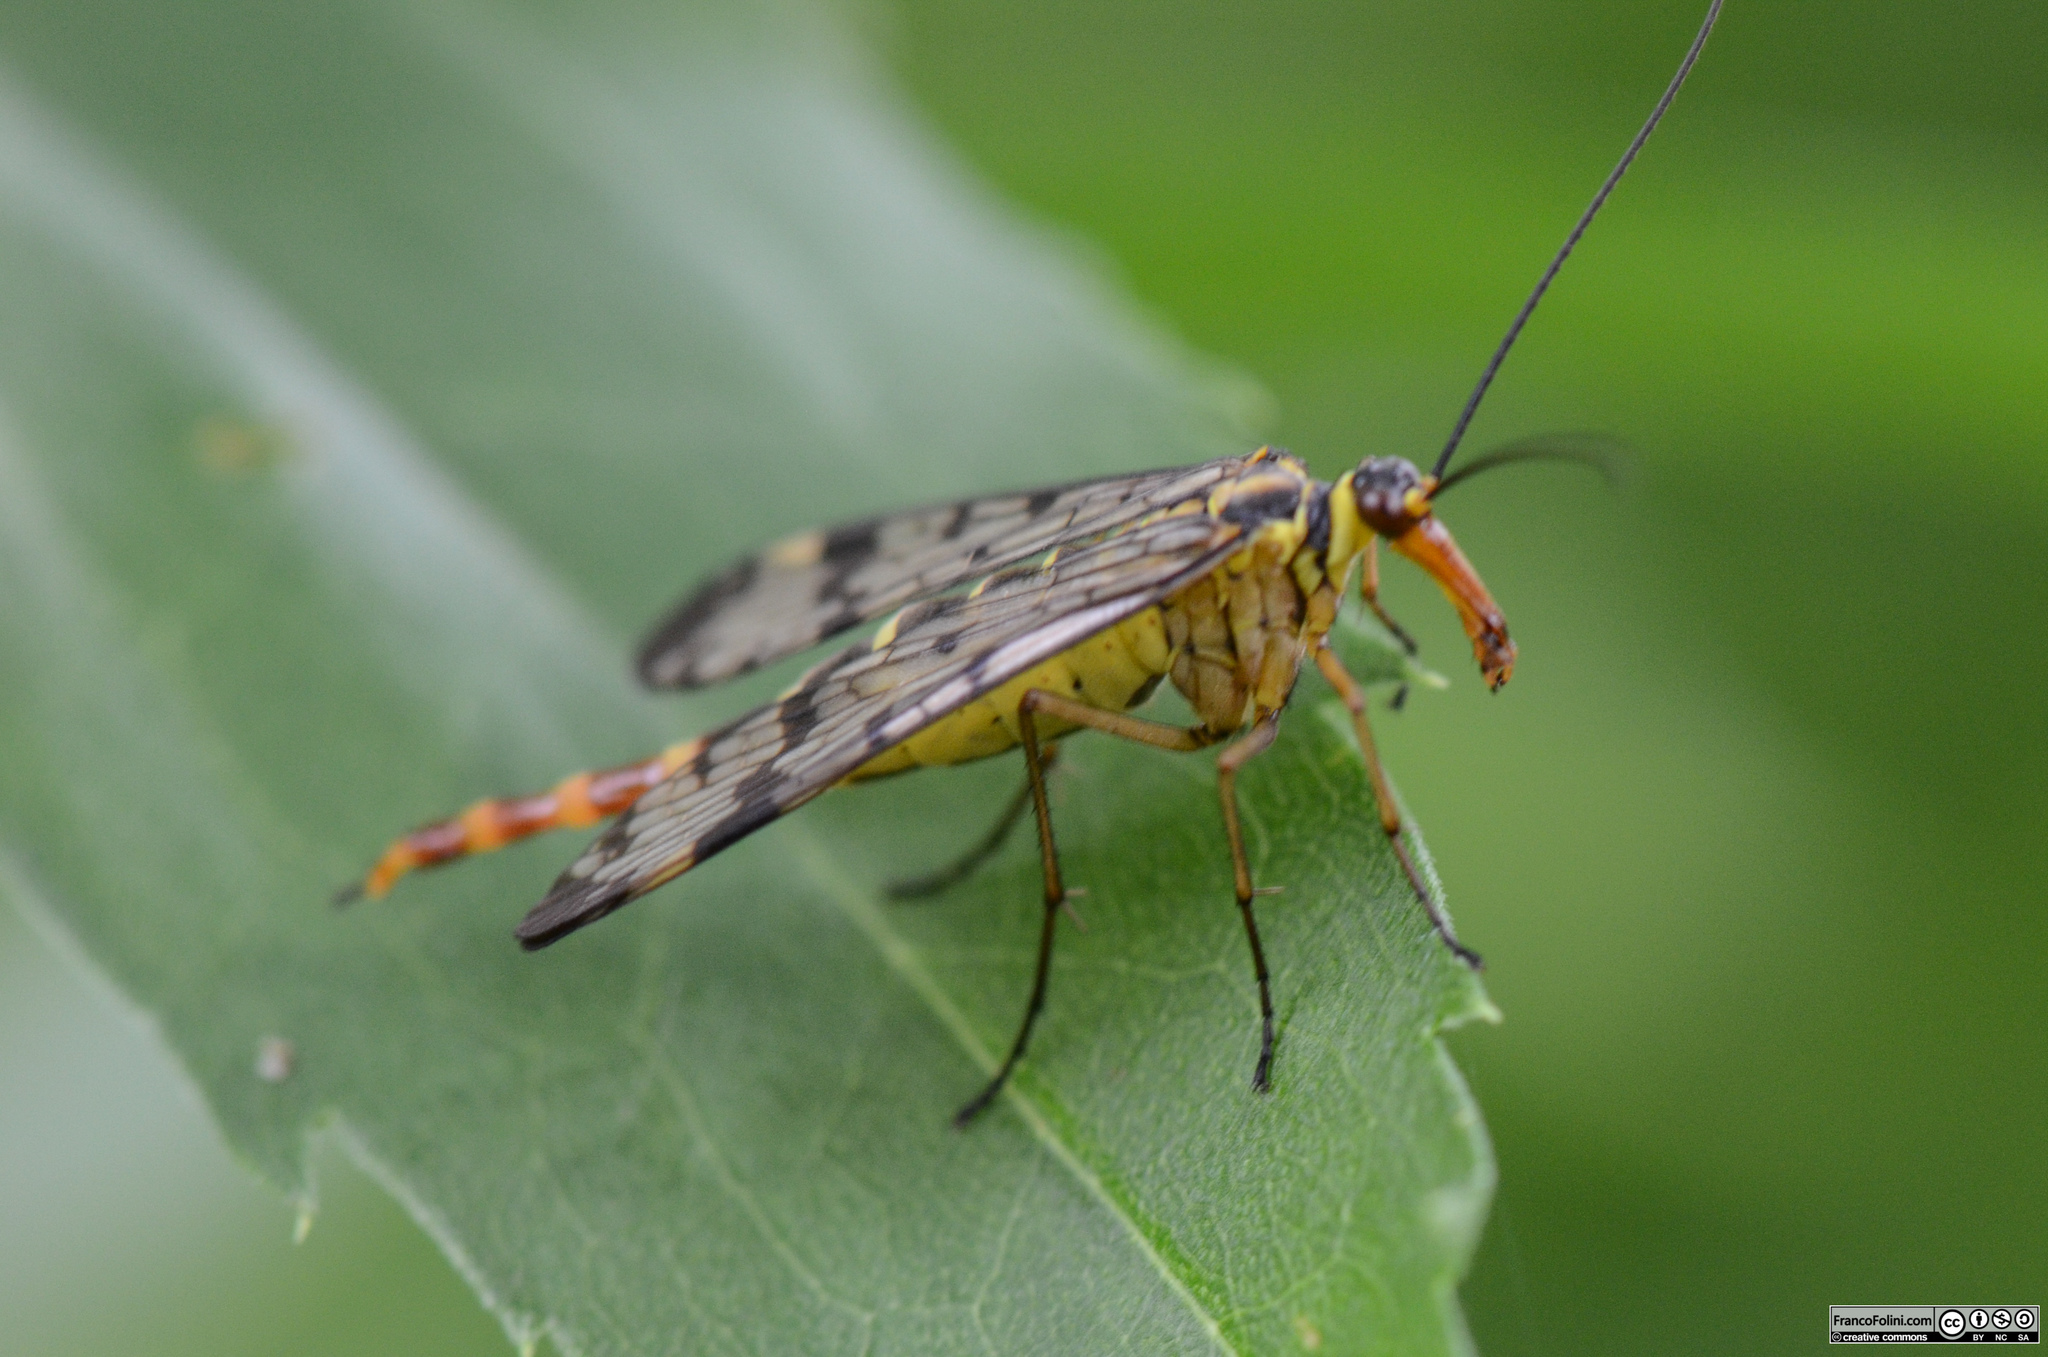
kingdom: Animalia
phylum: Arthropoda
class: Insecta
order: Mecoptera
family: Panorpidae
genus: Panorpa
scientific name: Panorpa communis
